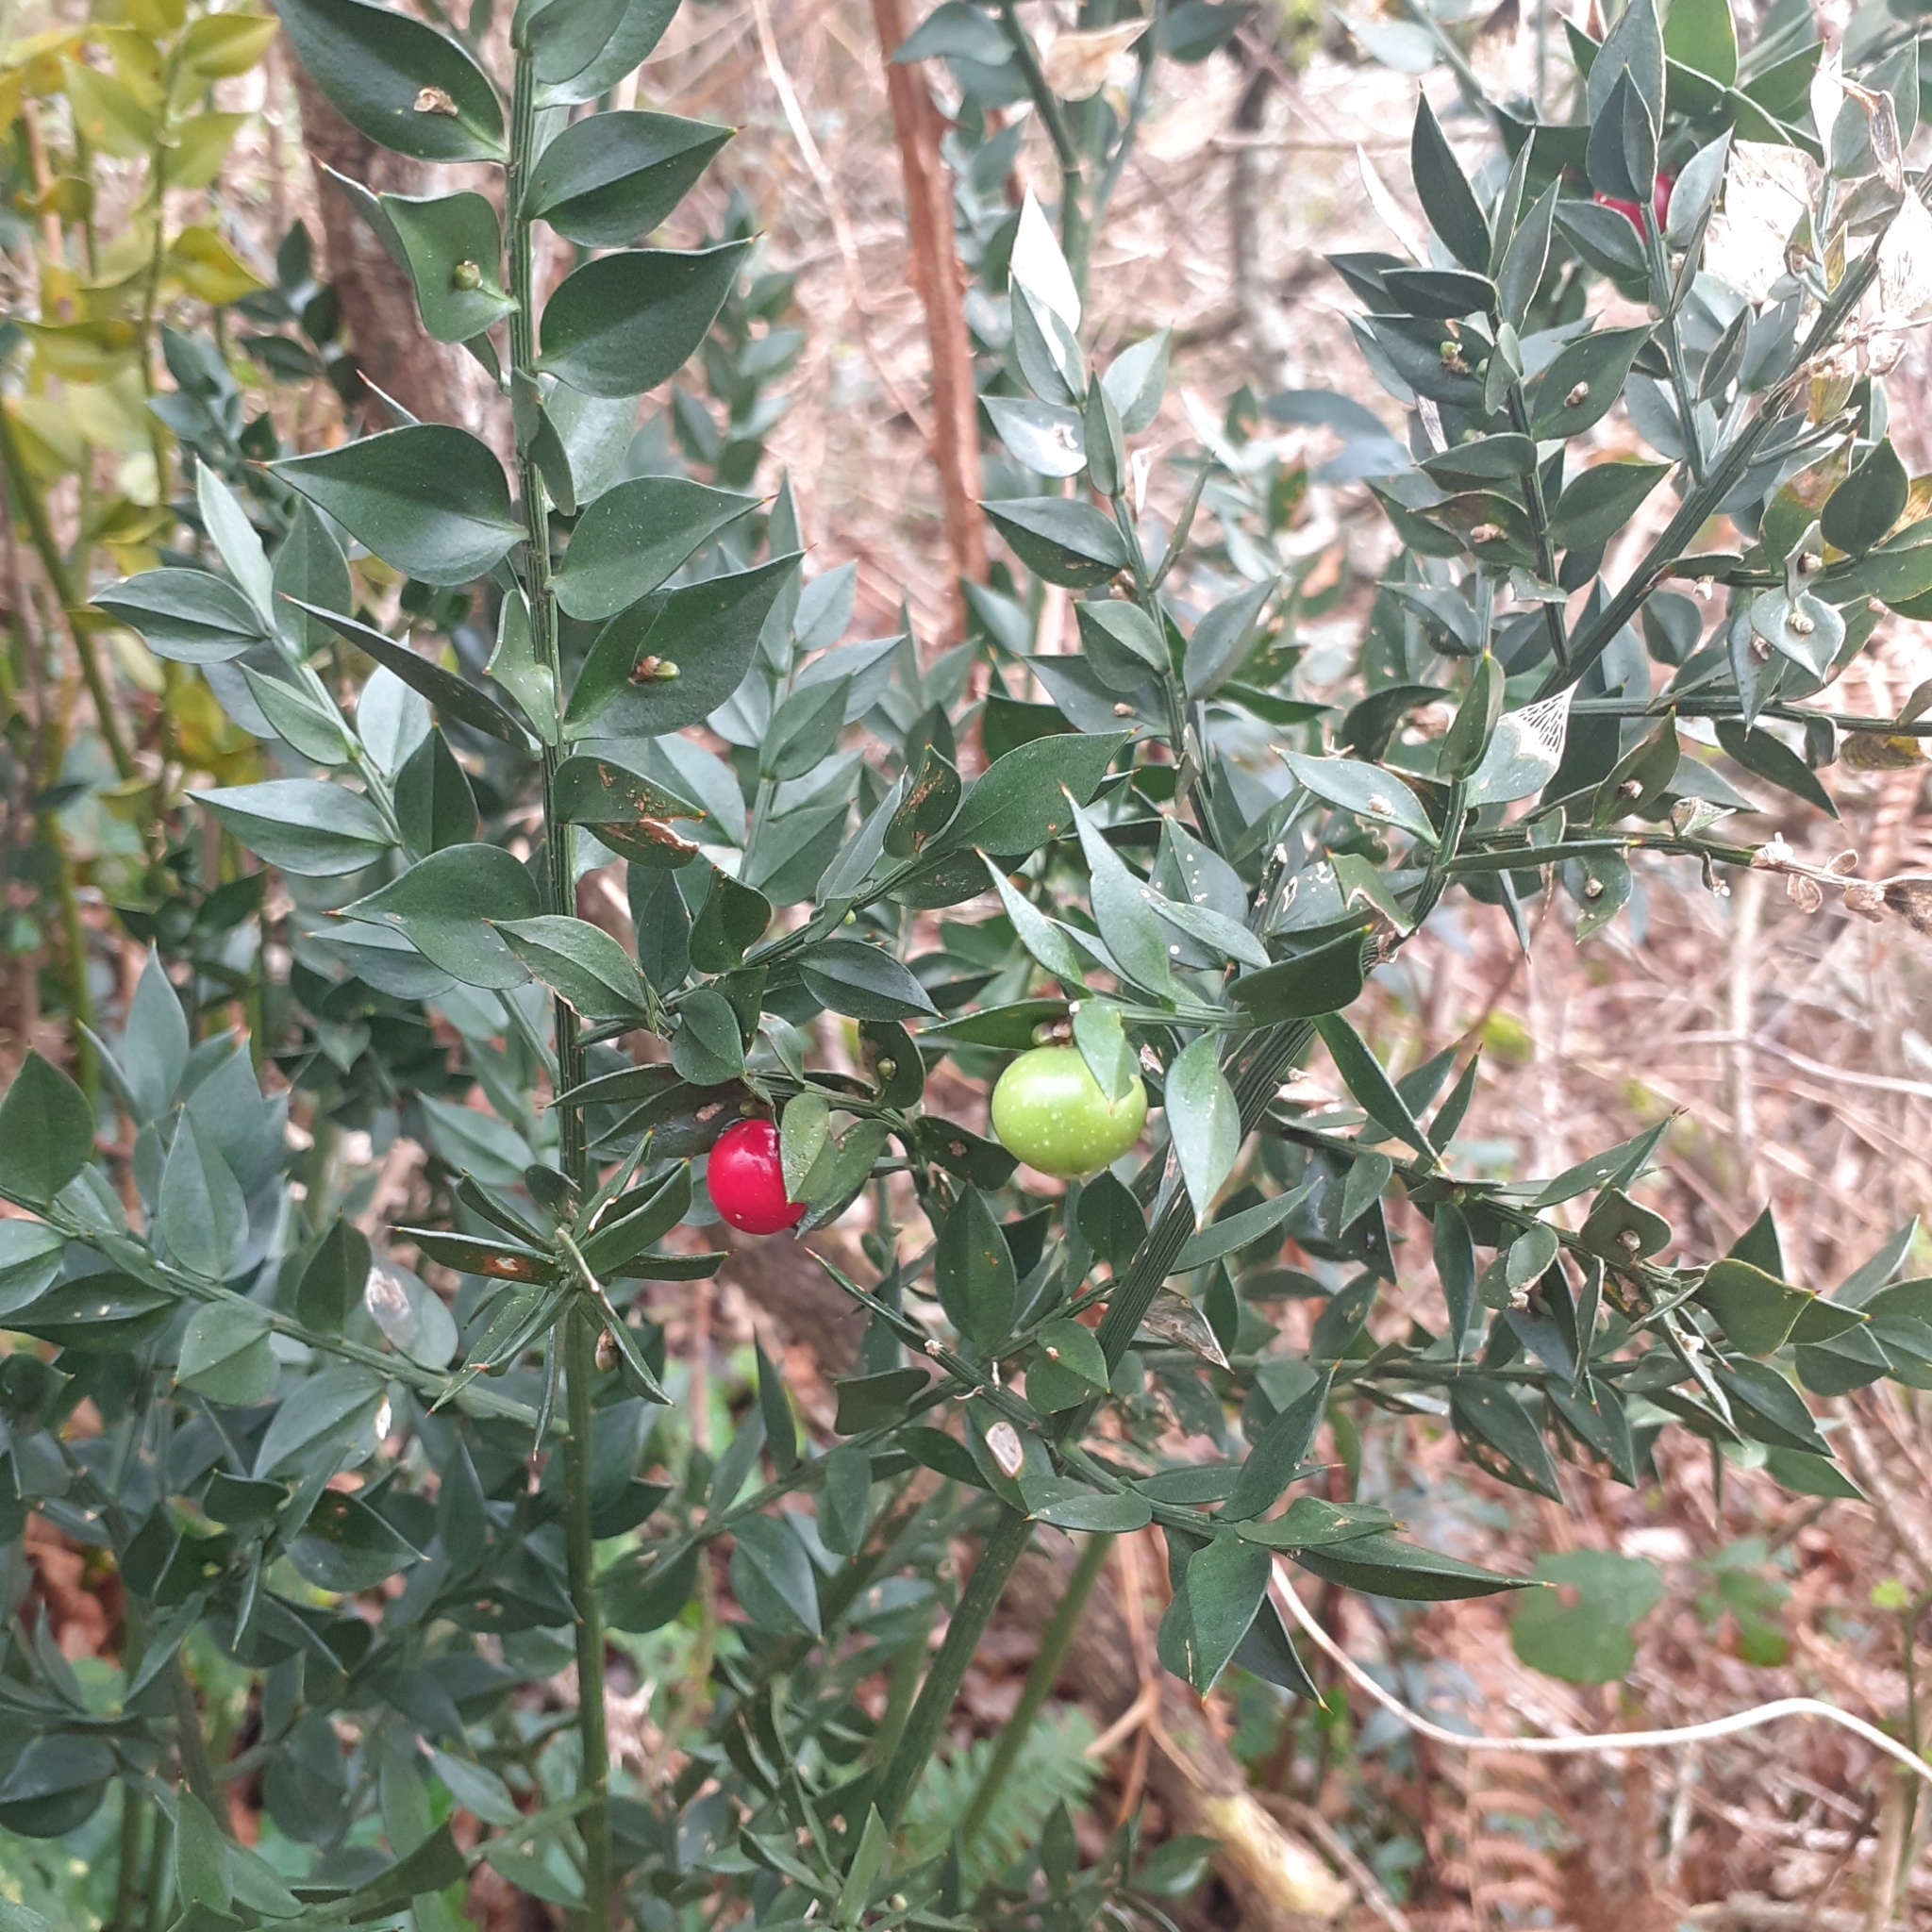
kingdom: Plantae
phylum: Tracheophyta
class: Liliopsida
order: Asparagales
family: Asparagaceae
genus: Ruscus
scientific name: Ruscus aculeatus
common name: Butcher's-broom
